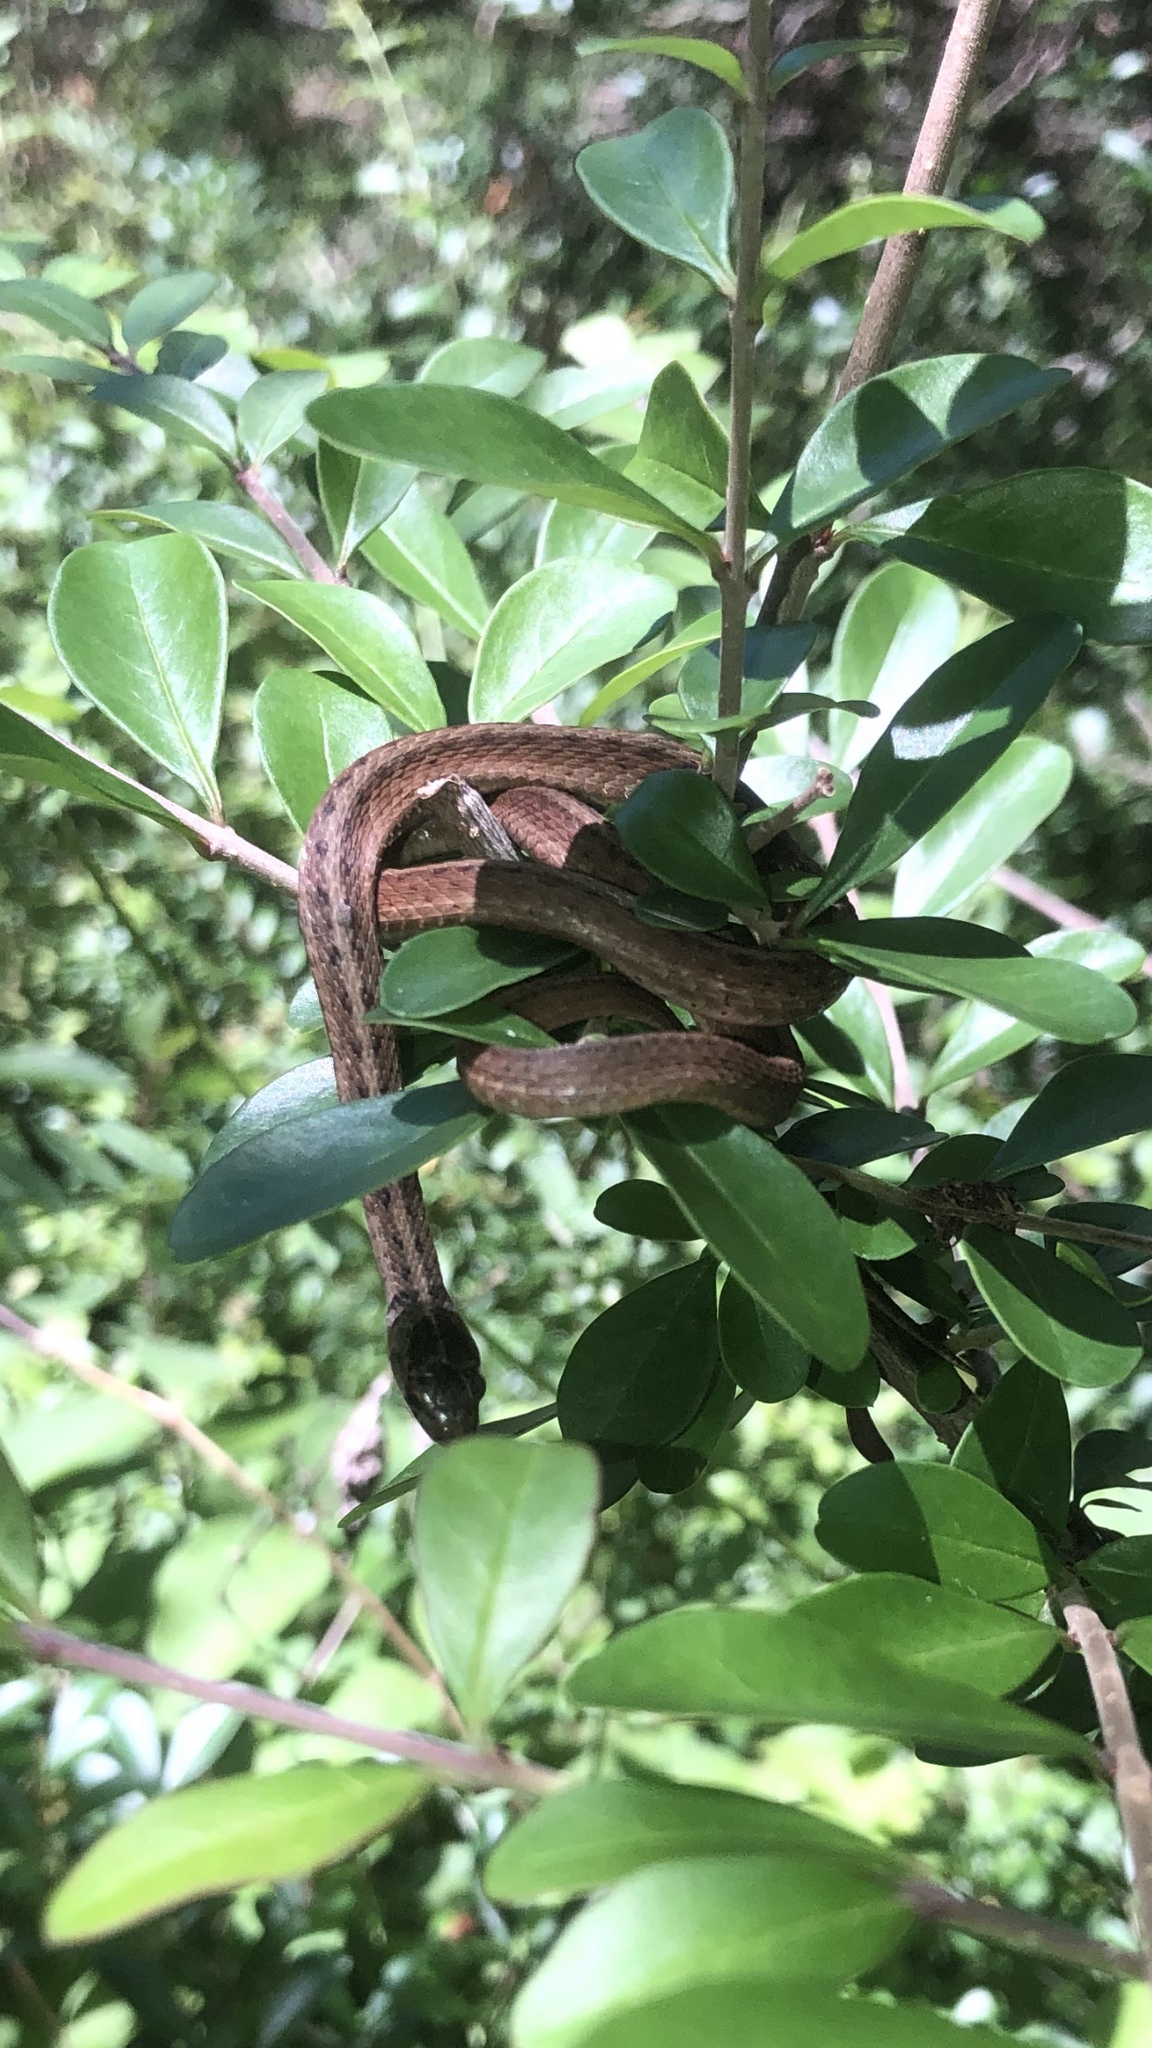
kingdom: Animalia
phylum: Chordata
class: Squamata
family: Colubridae
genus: Storeria
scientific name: Storeria dekayi
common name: (dekay’s) brown snake
